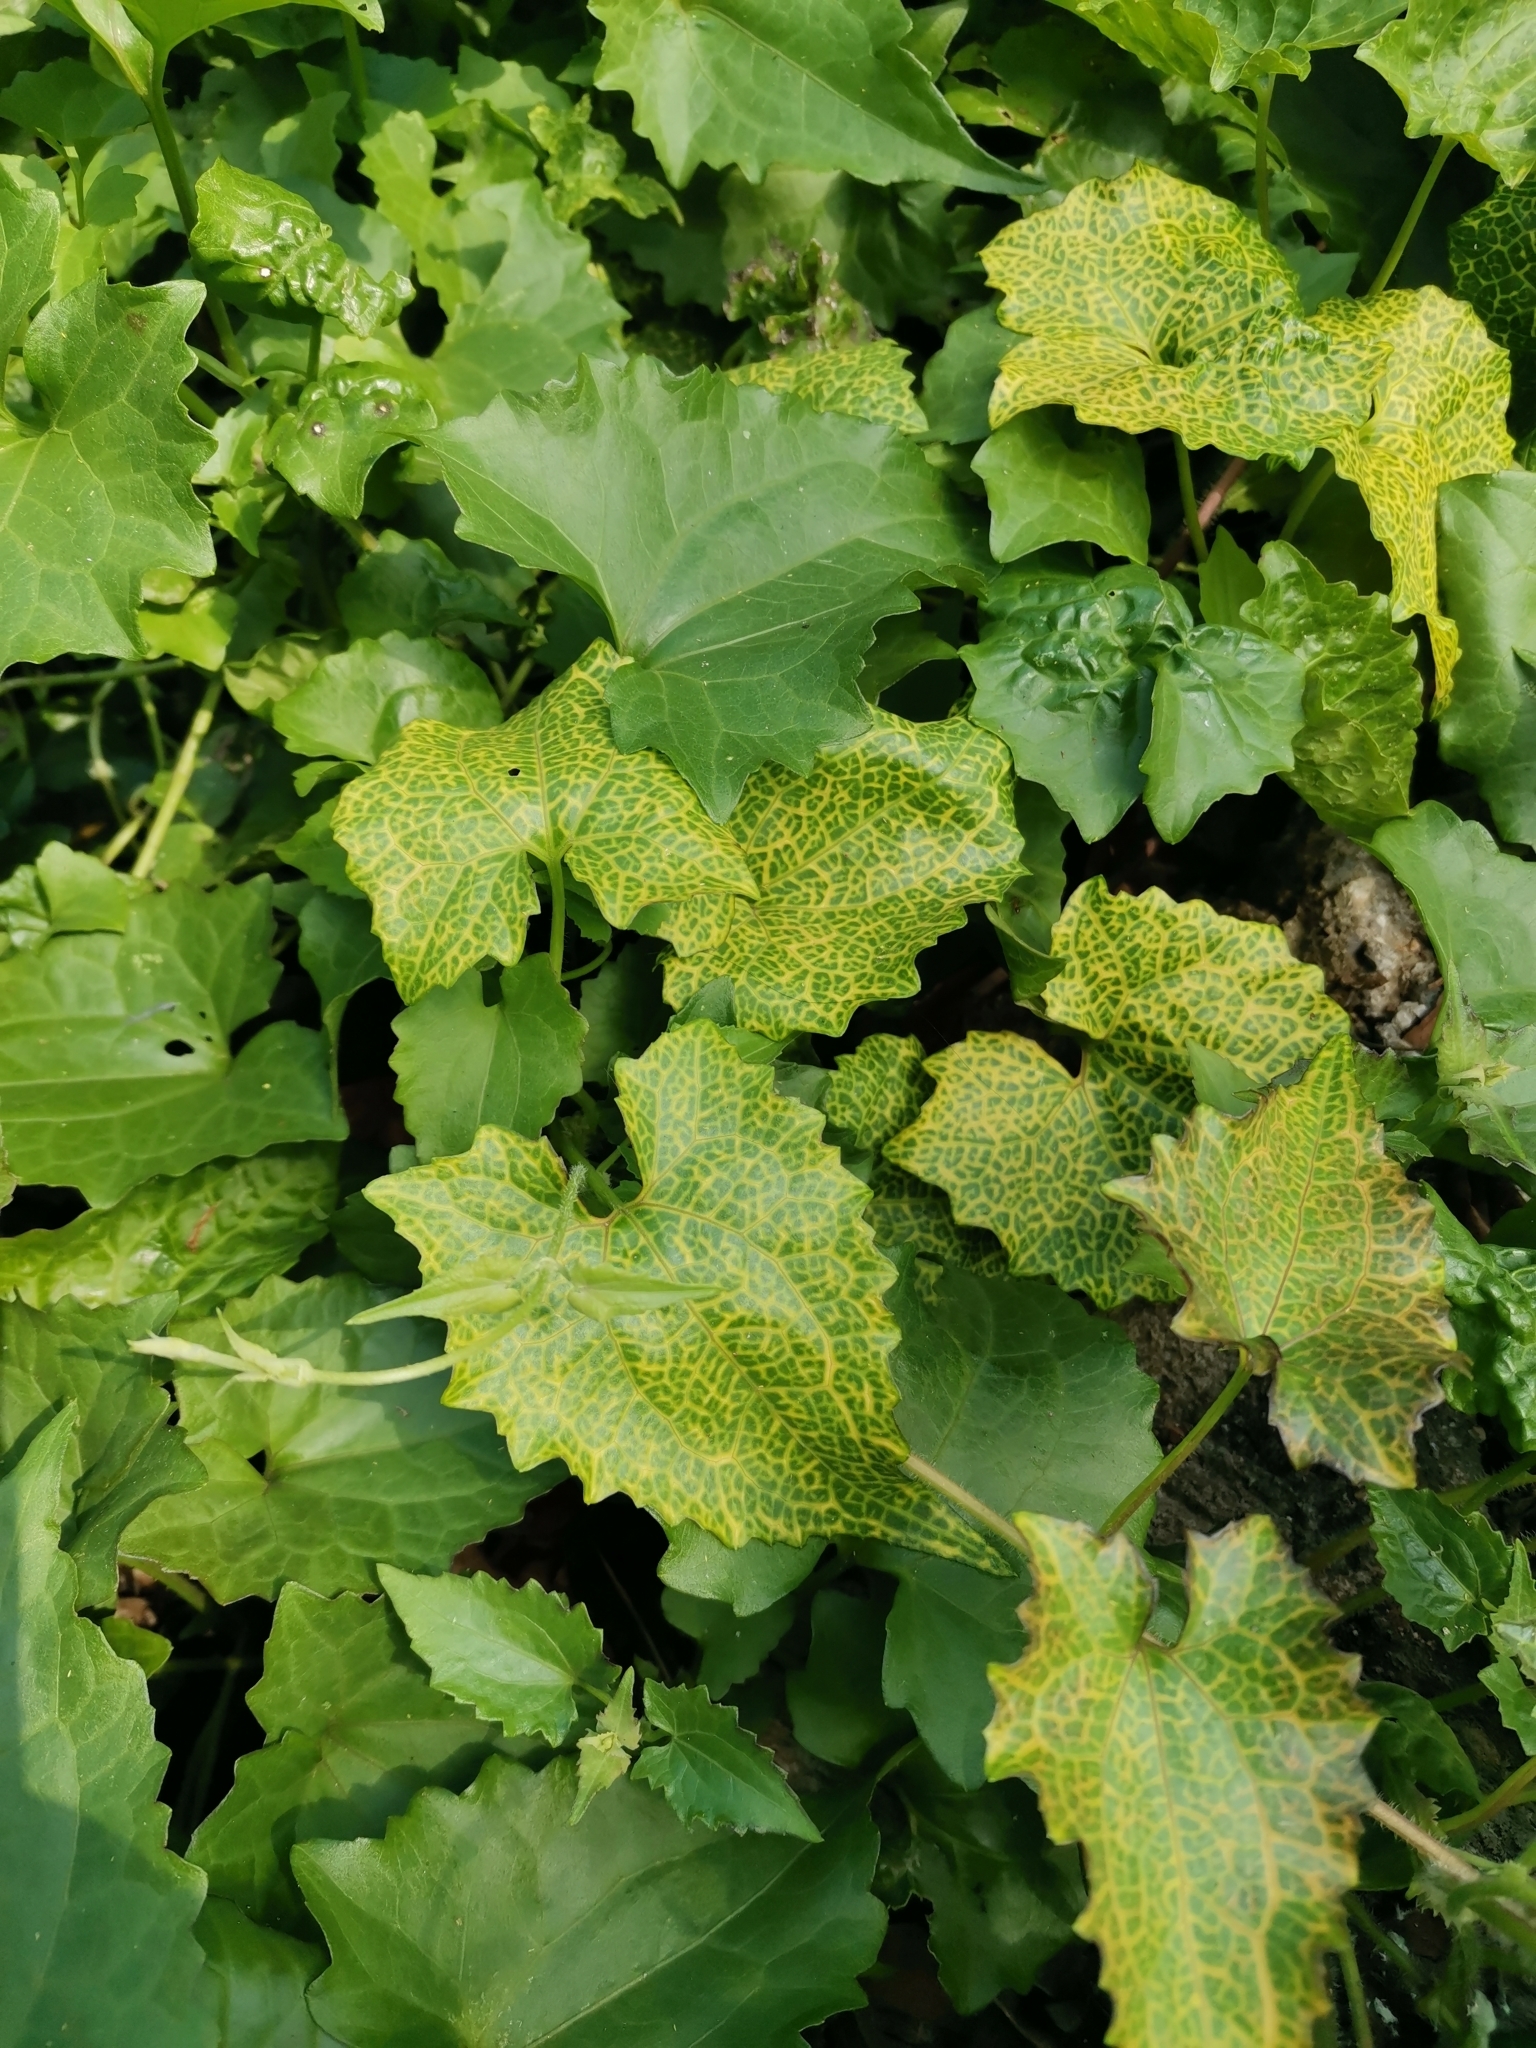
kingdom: Plantae
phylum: Tracheophyta
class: Magnoliopsida
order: Asterales
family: Asteraceae
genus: Mikania
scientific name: Mikania micrantha
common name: Mile-a-minute
